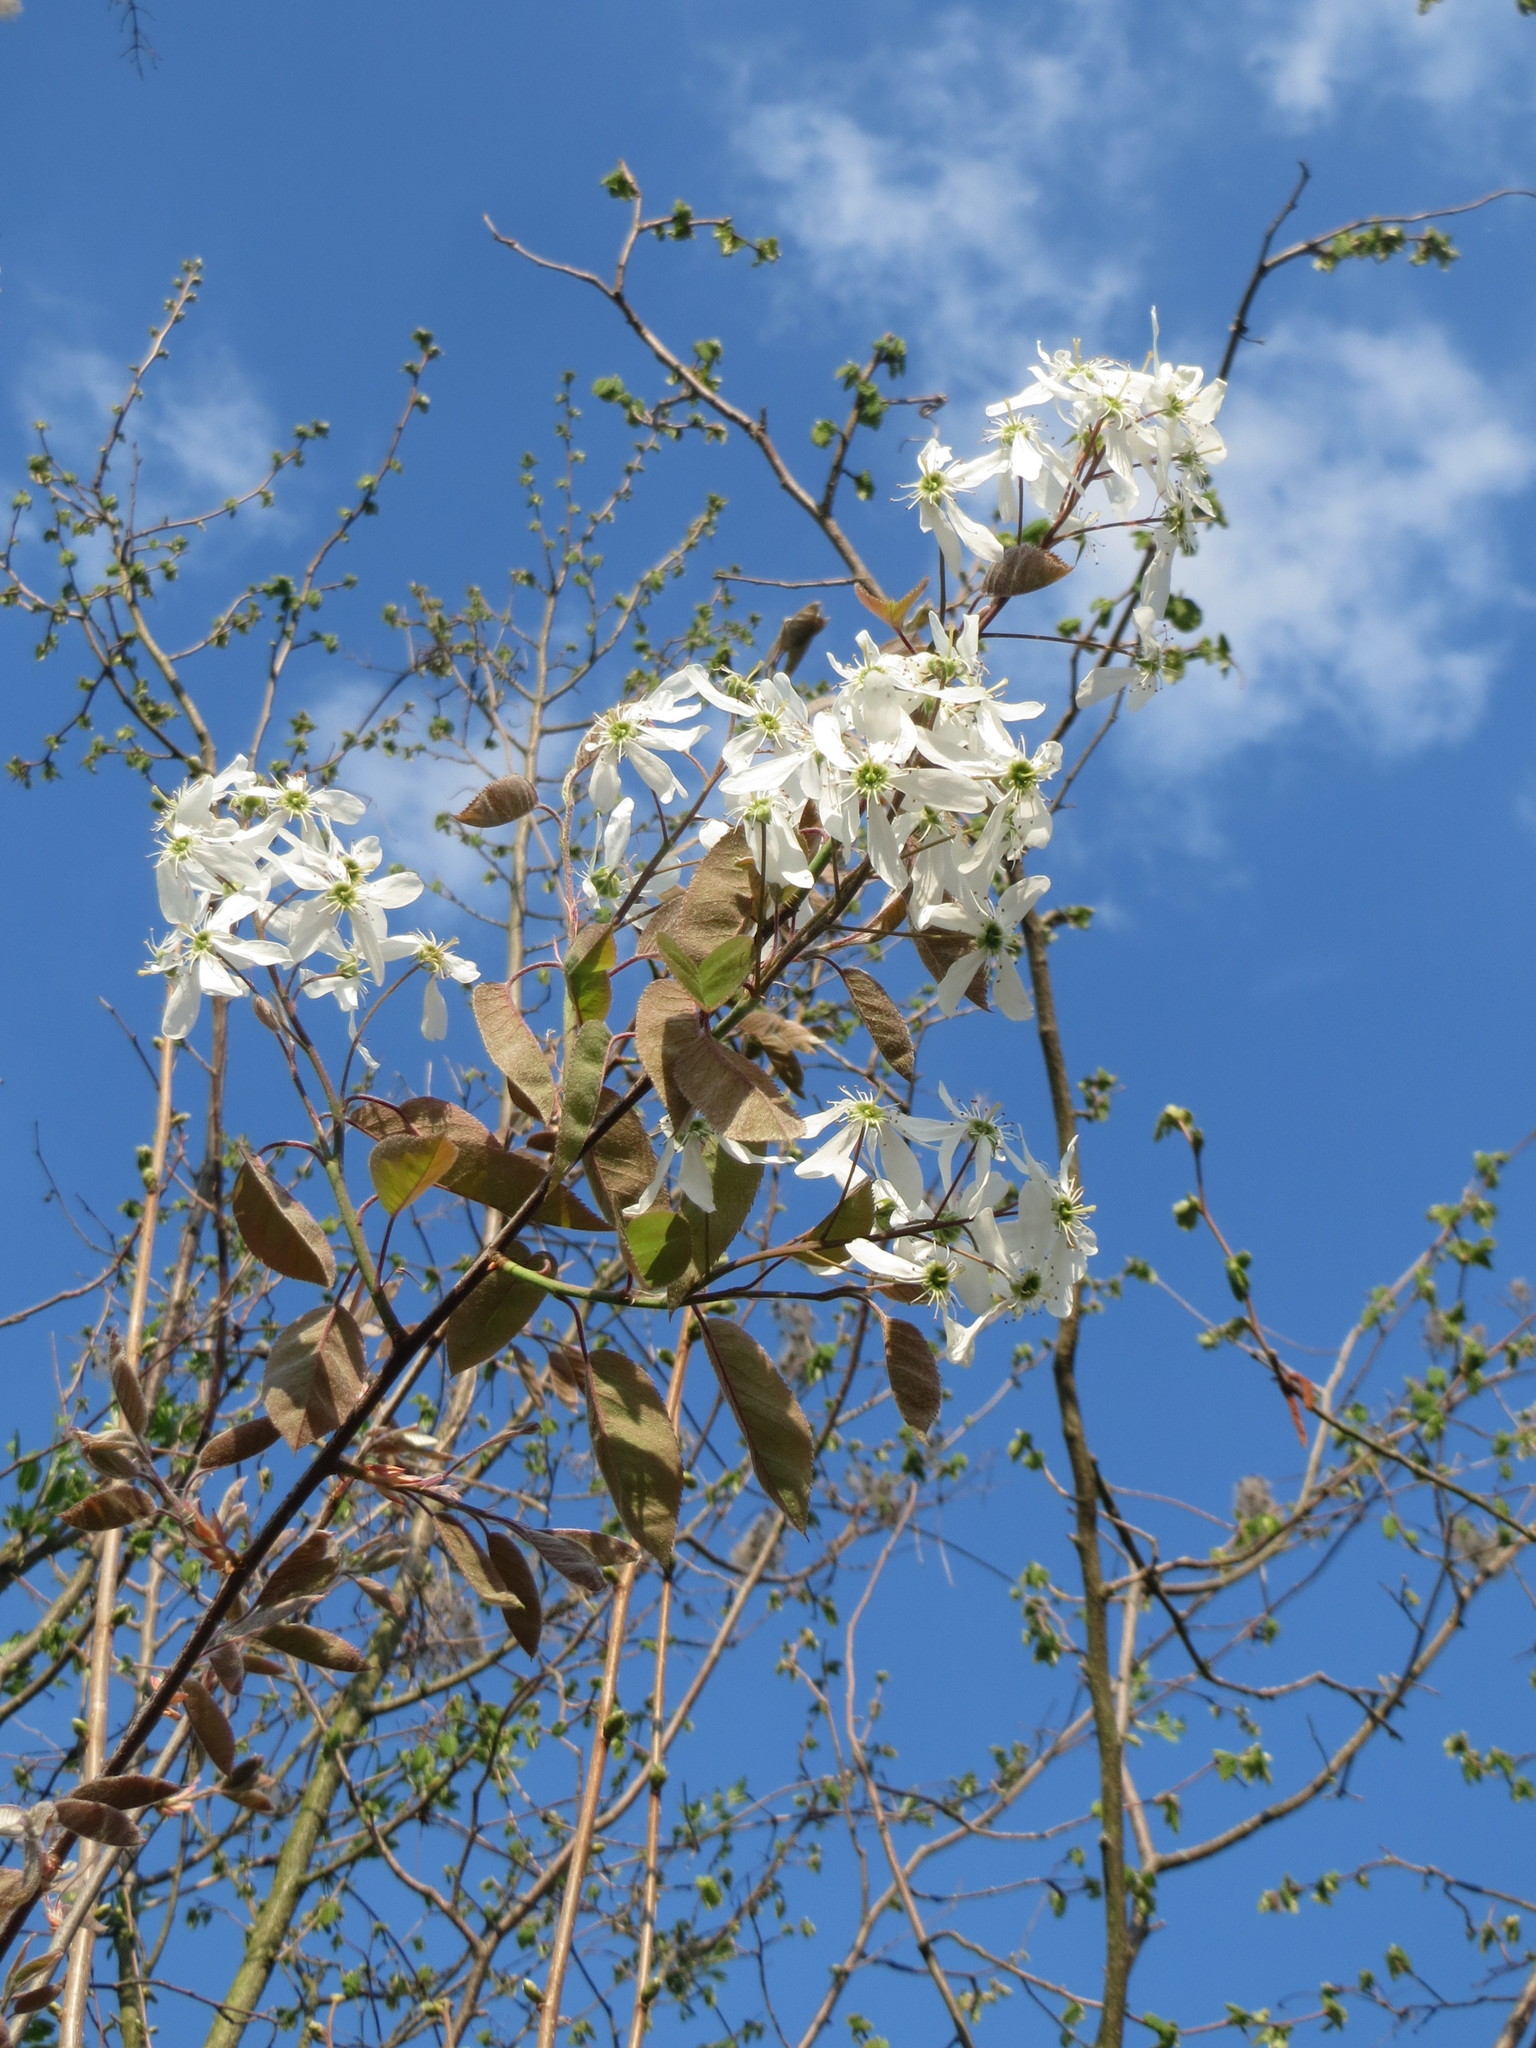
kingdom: Plantae
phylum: Tracheophyta
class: Magnoliopsida
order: Rosales
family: Rosaceae
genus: Amelanchier
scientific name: Amelanchier lamarckii
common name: Juneberry
